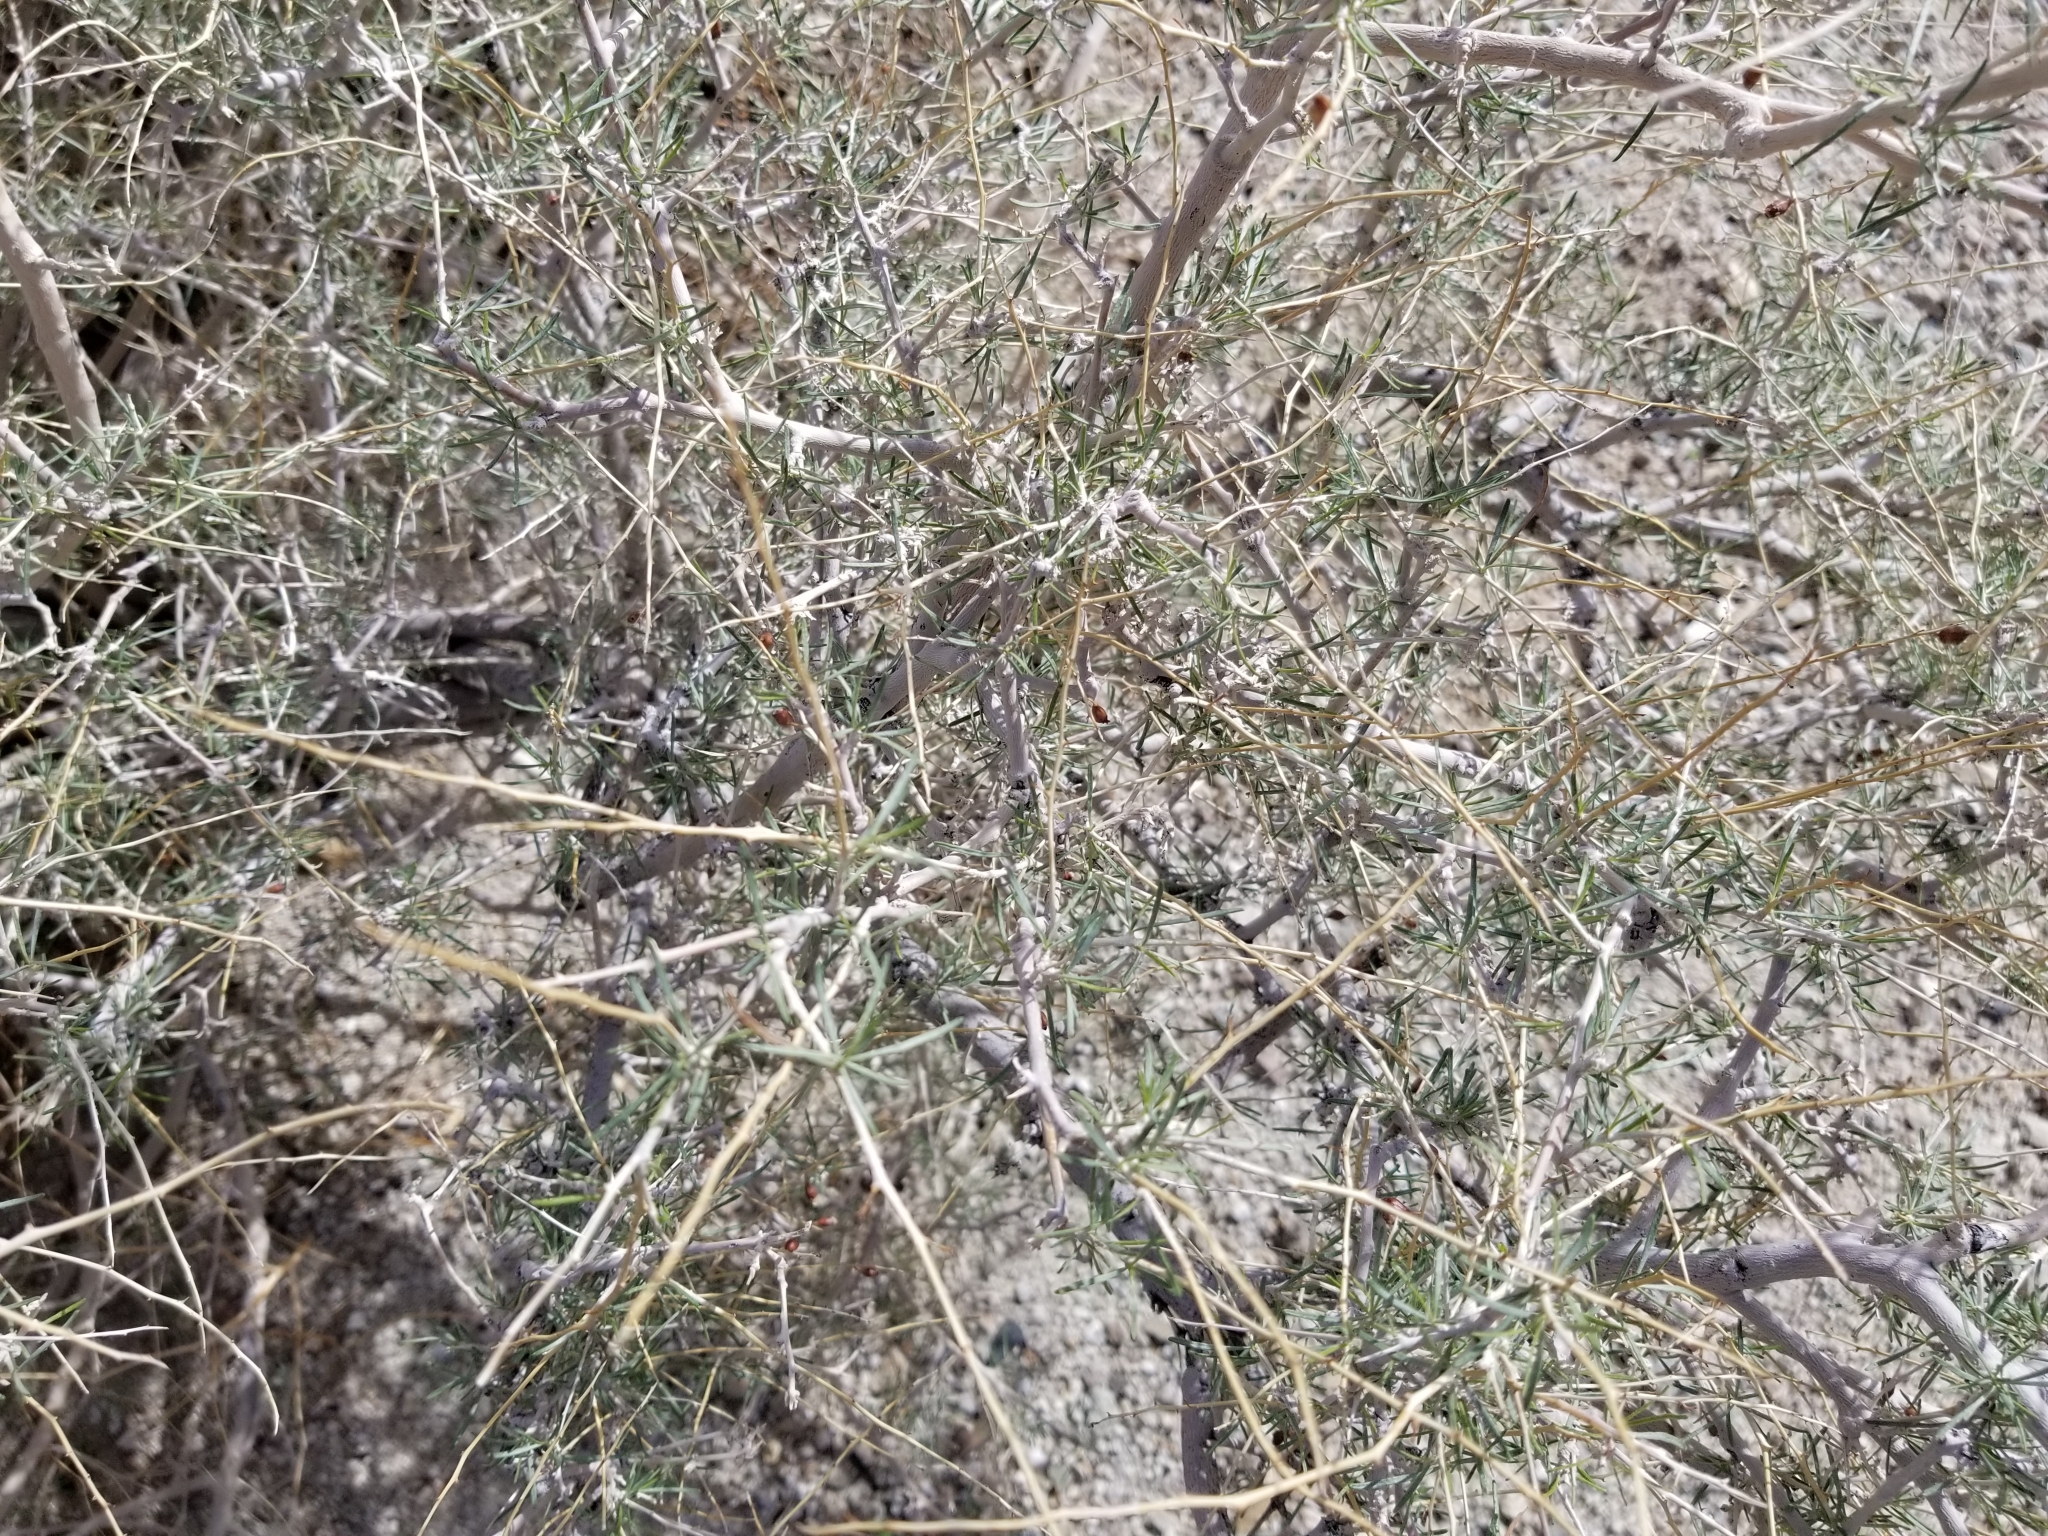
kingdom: Plantae
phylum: Tracheophyta
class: Magnoliopsida
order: Fabales
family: Fabaceae
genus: Psorothamnus
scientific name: Psorothamnus schottii
